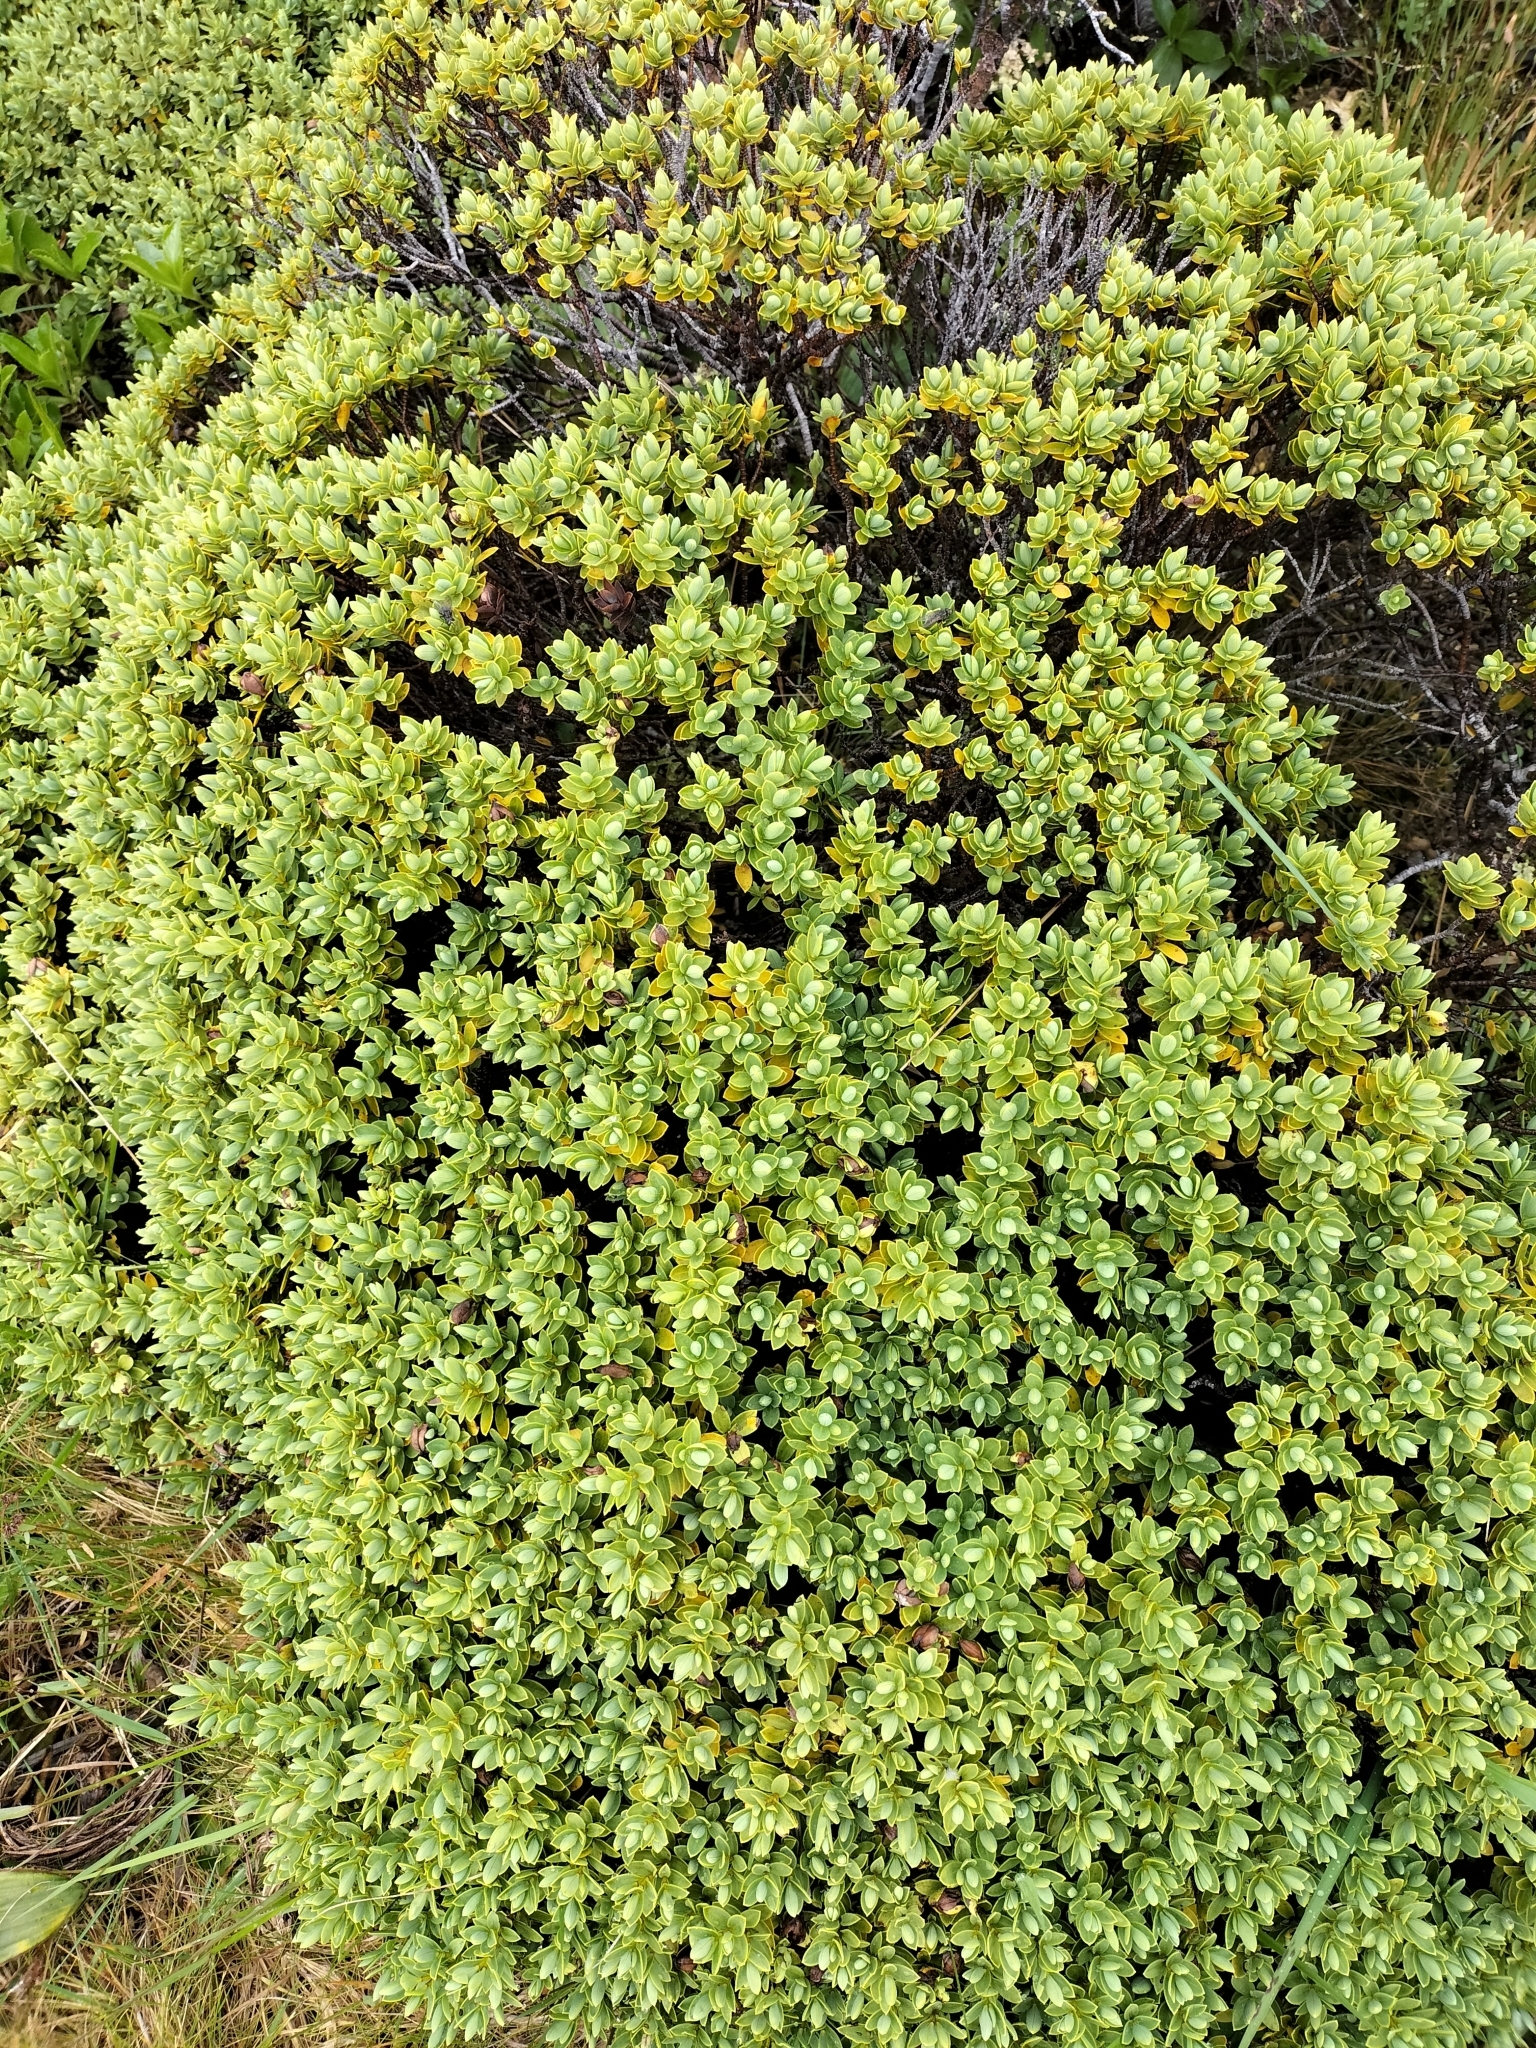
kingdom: Plantae
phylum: Tracheophyta
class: Magnoliopsida
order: Lamiales
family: Plantaginaceae
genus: Veronica
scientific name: Veronica topiaria
